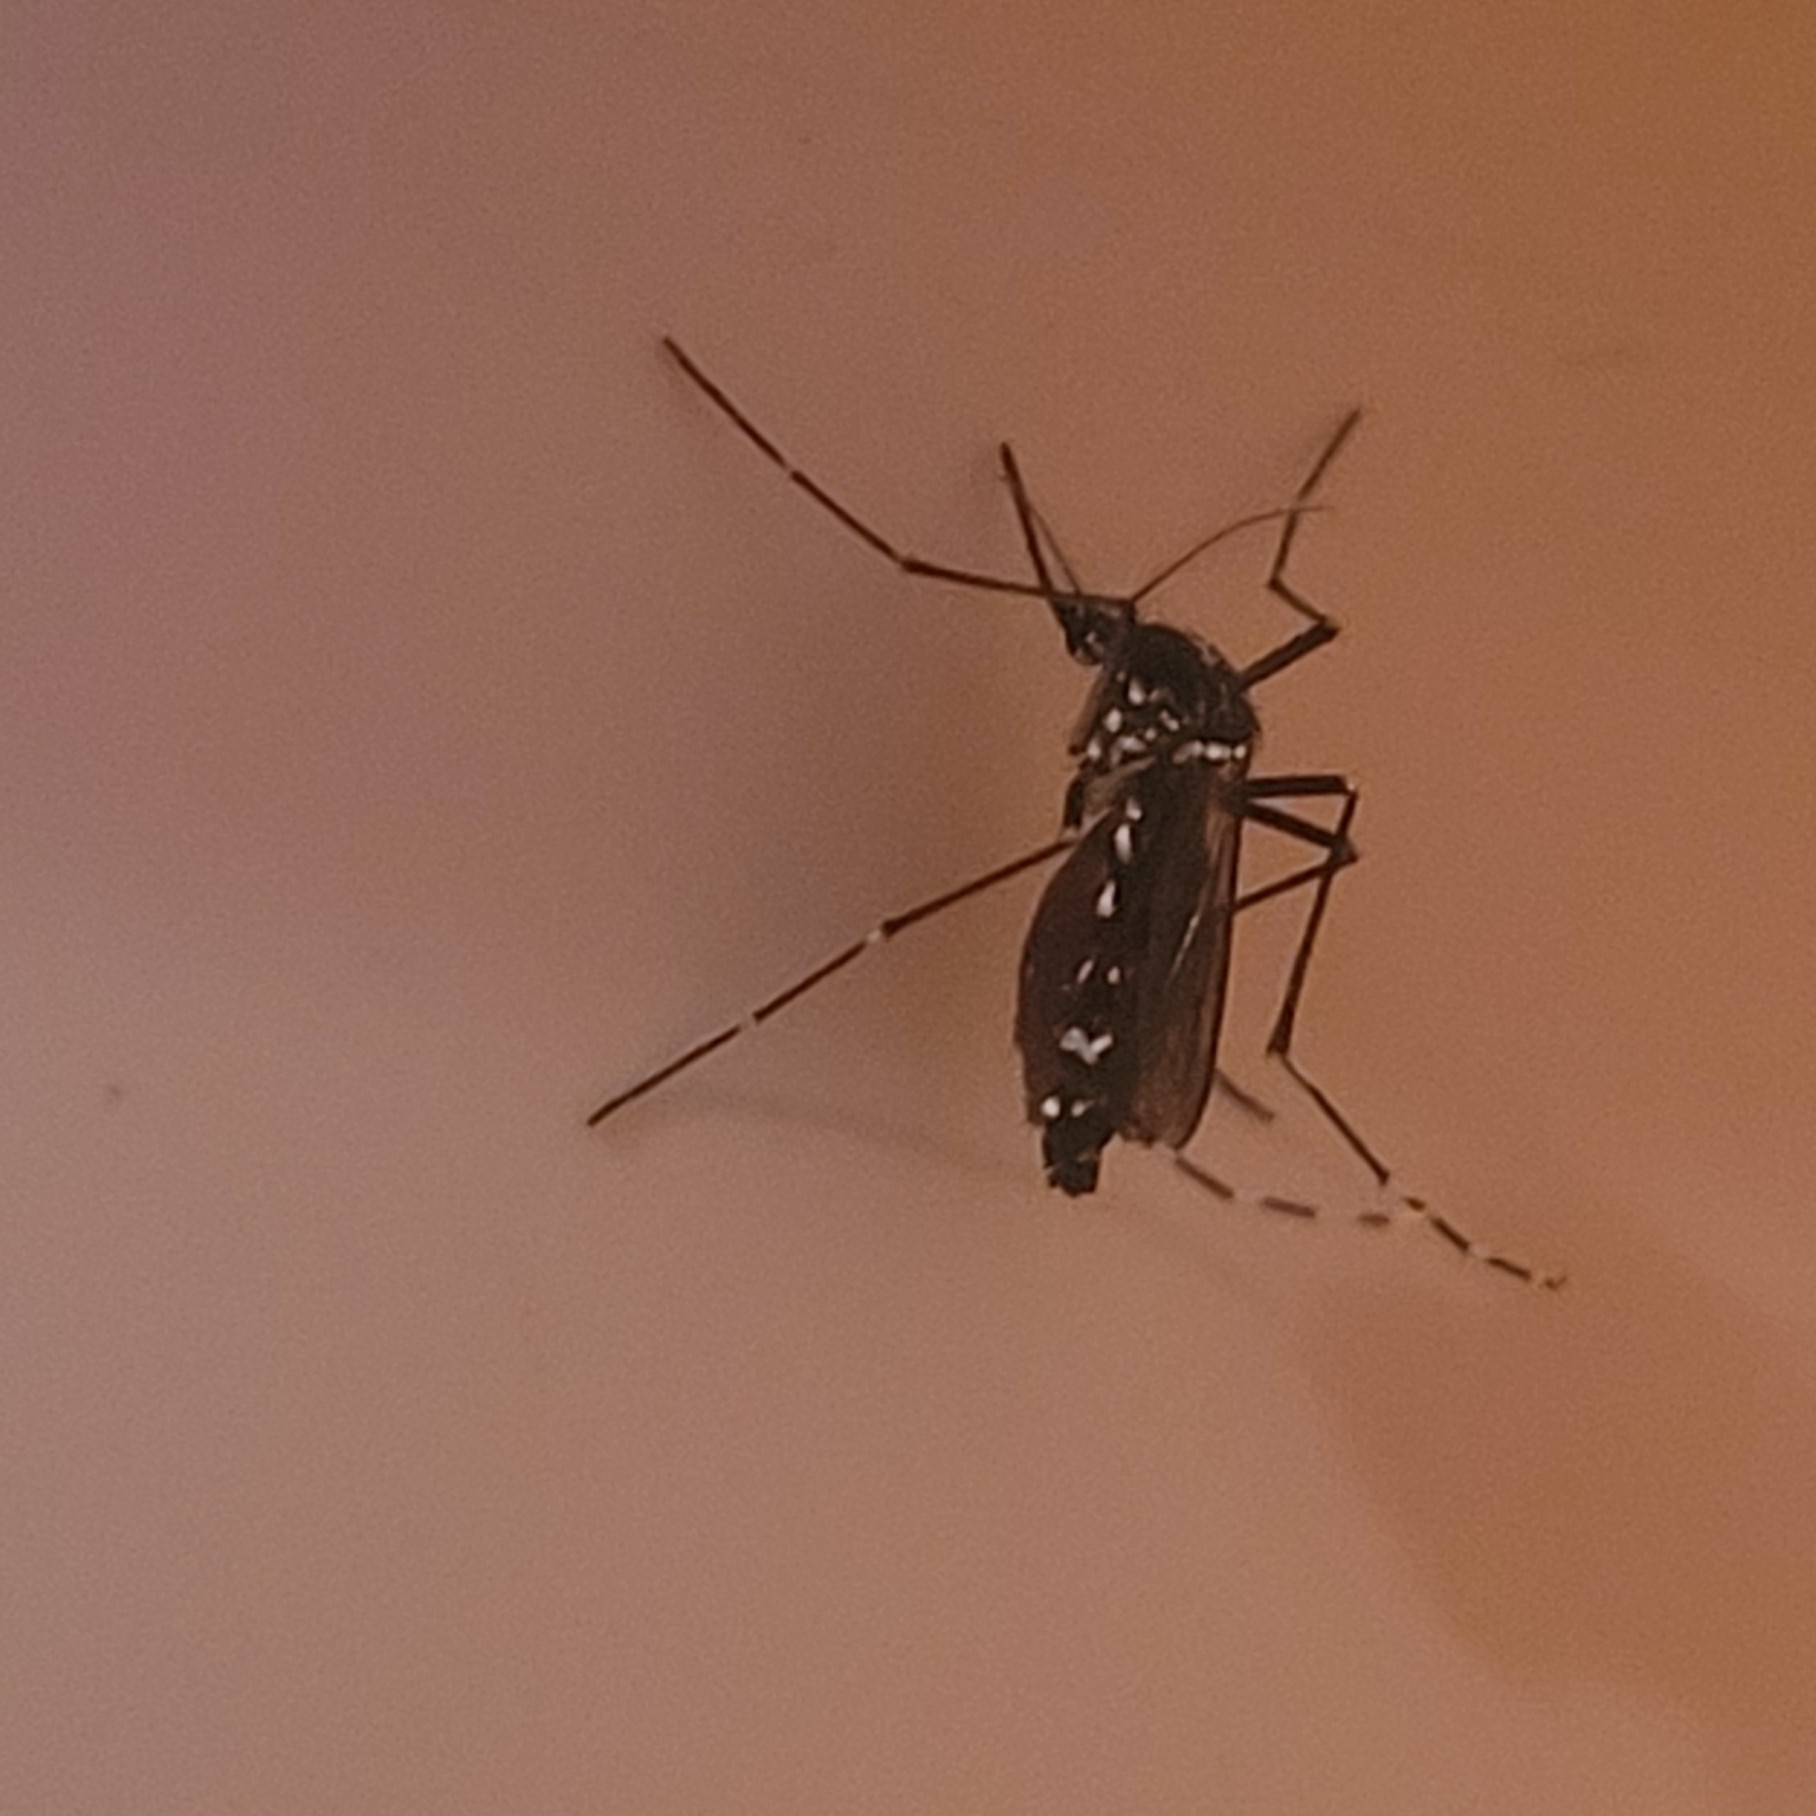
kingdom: Animalia
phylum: Arthropoda
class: Insecta
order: Diptera
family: Culicidae
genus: Aedes
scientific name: Aedes albopictus
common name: Tiger mosquito
